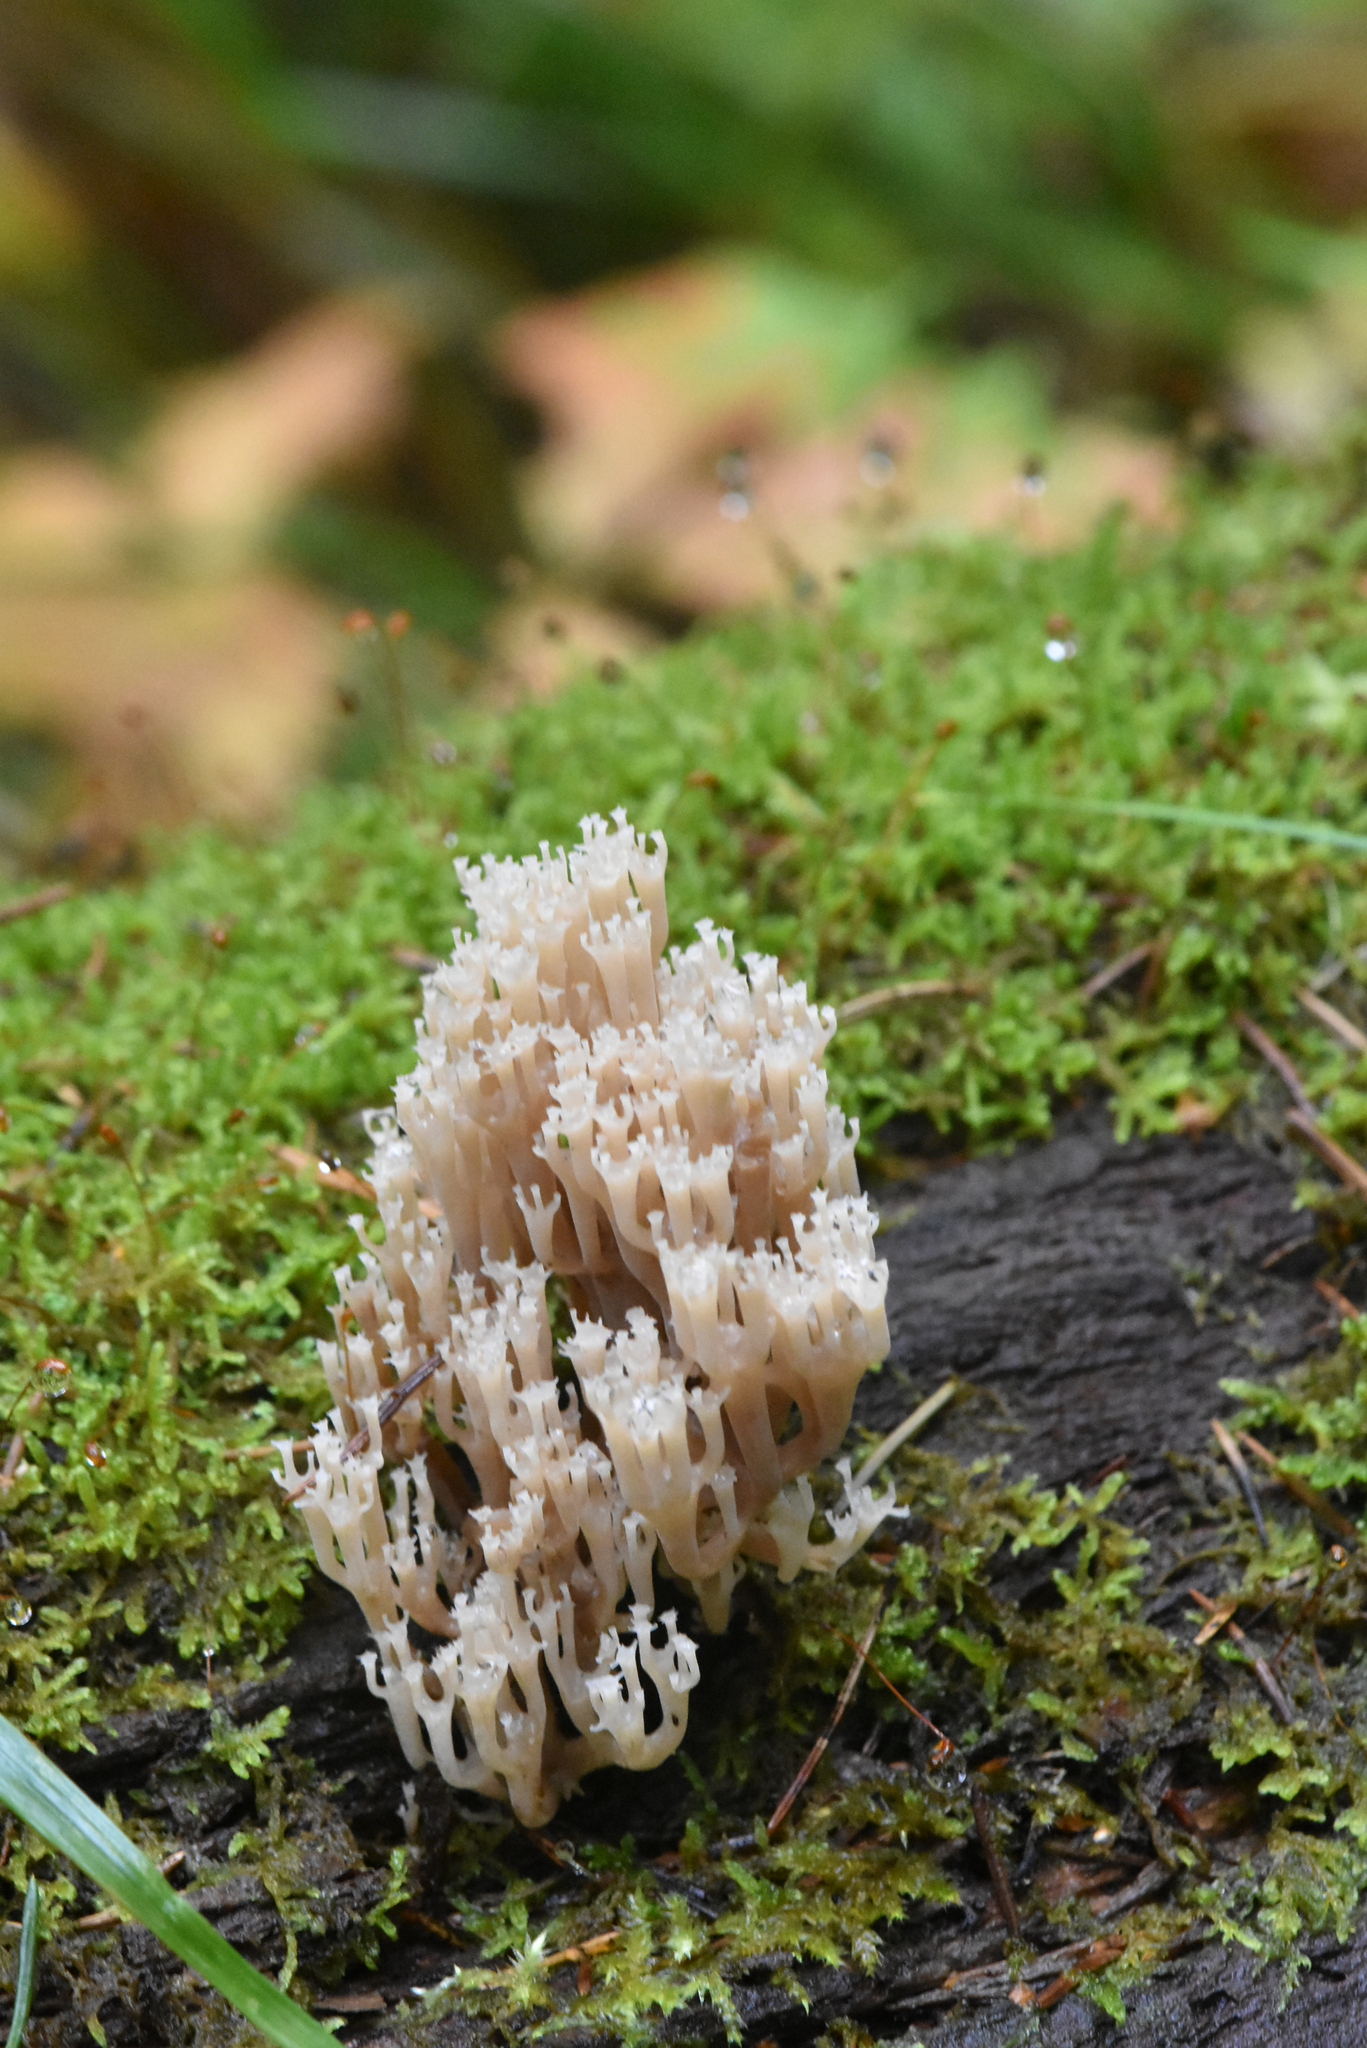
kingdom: Fungi
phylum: Basidiomycota
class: Agaricomycetes
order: Russulales
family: Auriscalpiaceae
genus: Artomyces
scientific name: Artomyces pyxidatus
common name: Crown-tipped coral fungus
